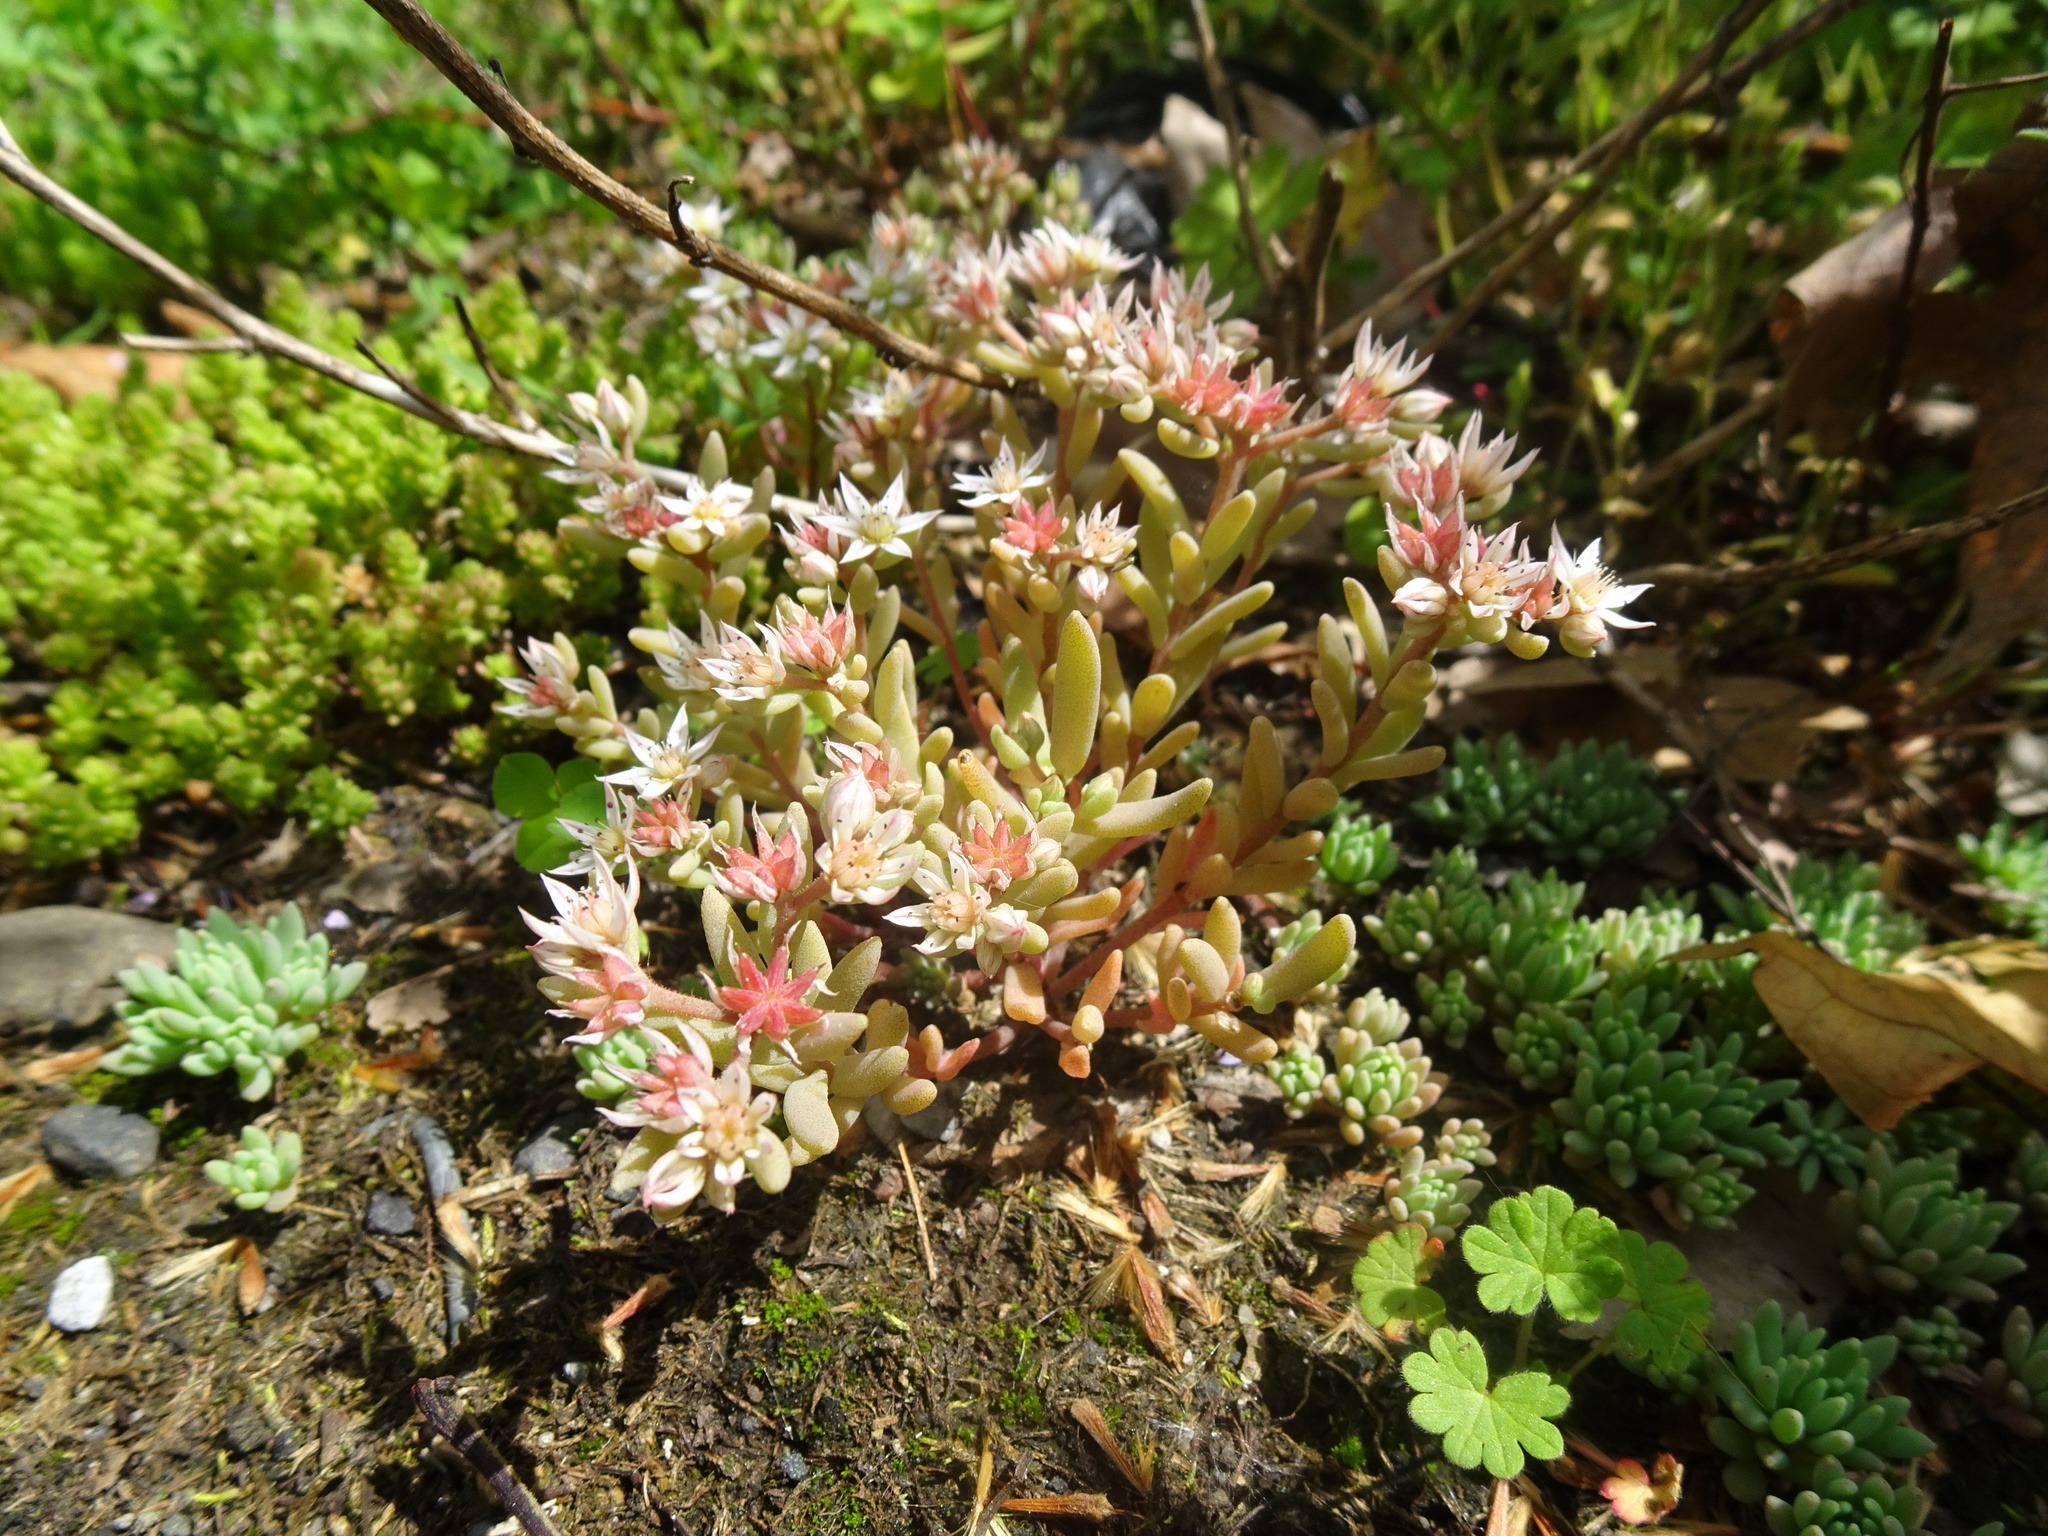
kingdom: Plantae
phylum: Tracheophyta
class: Magnoliopsida
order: Saxifragales
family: Crassulaceae
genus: Sedum
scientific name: Sedum hispanicum
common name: Spanish stonecrop
